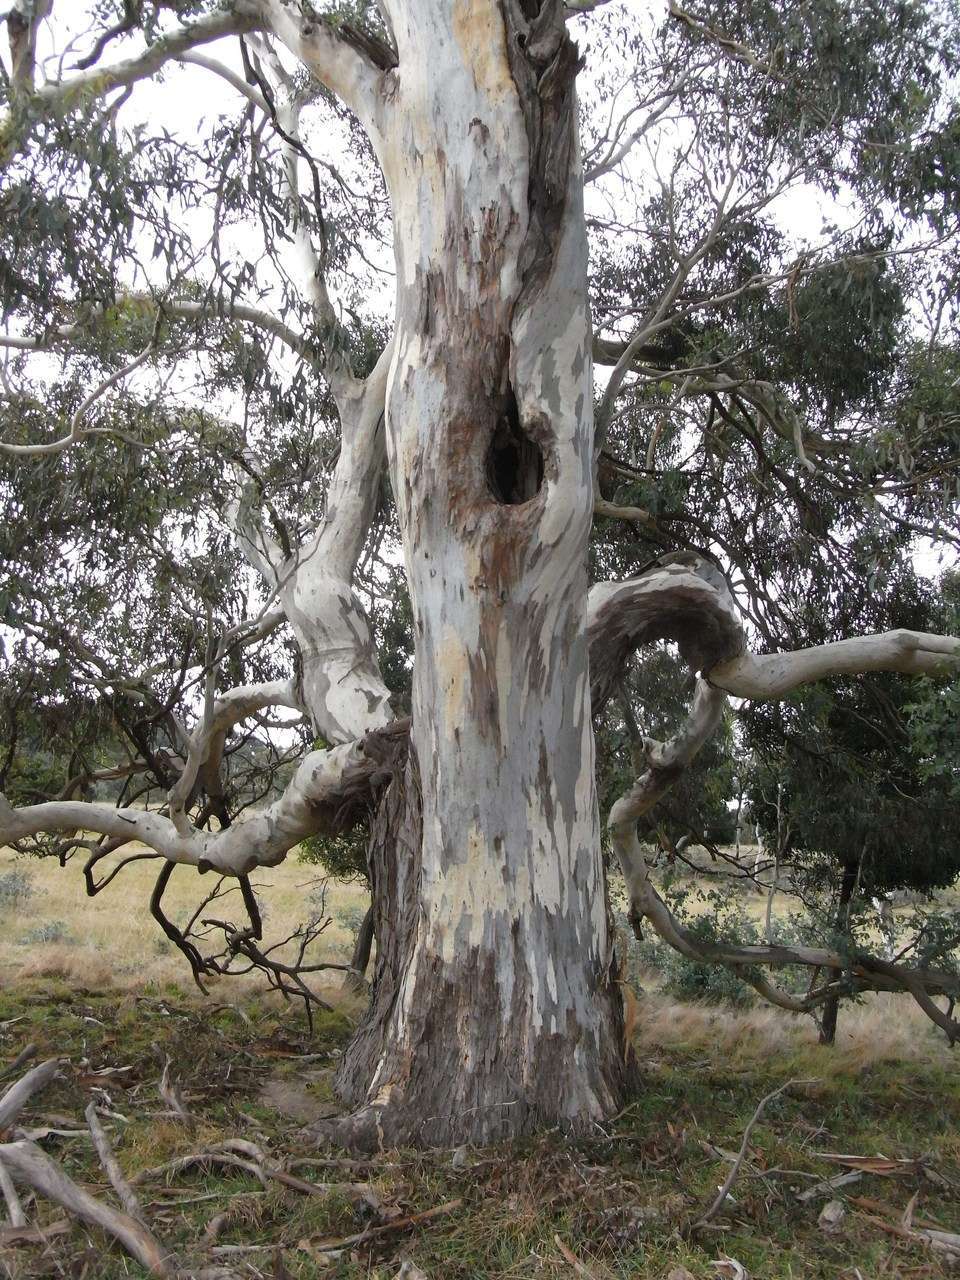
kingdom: Plantae
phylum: Tracheophyta
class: Magnoliopsida
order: Myrtales
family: Myrtaceae
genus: Eucalyptus
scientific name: Eucalyptus rubida
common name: Candlebark
